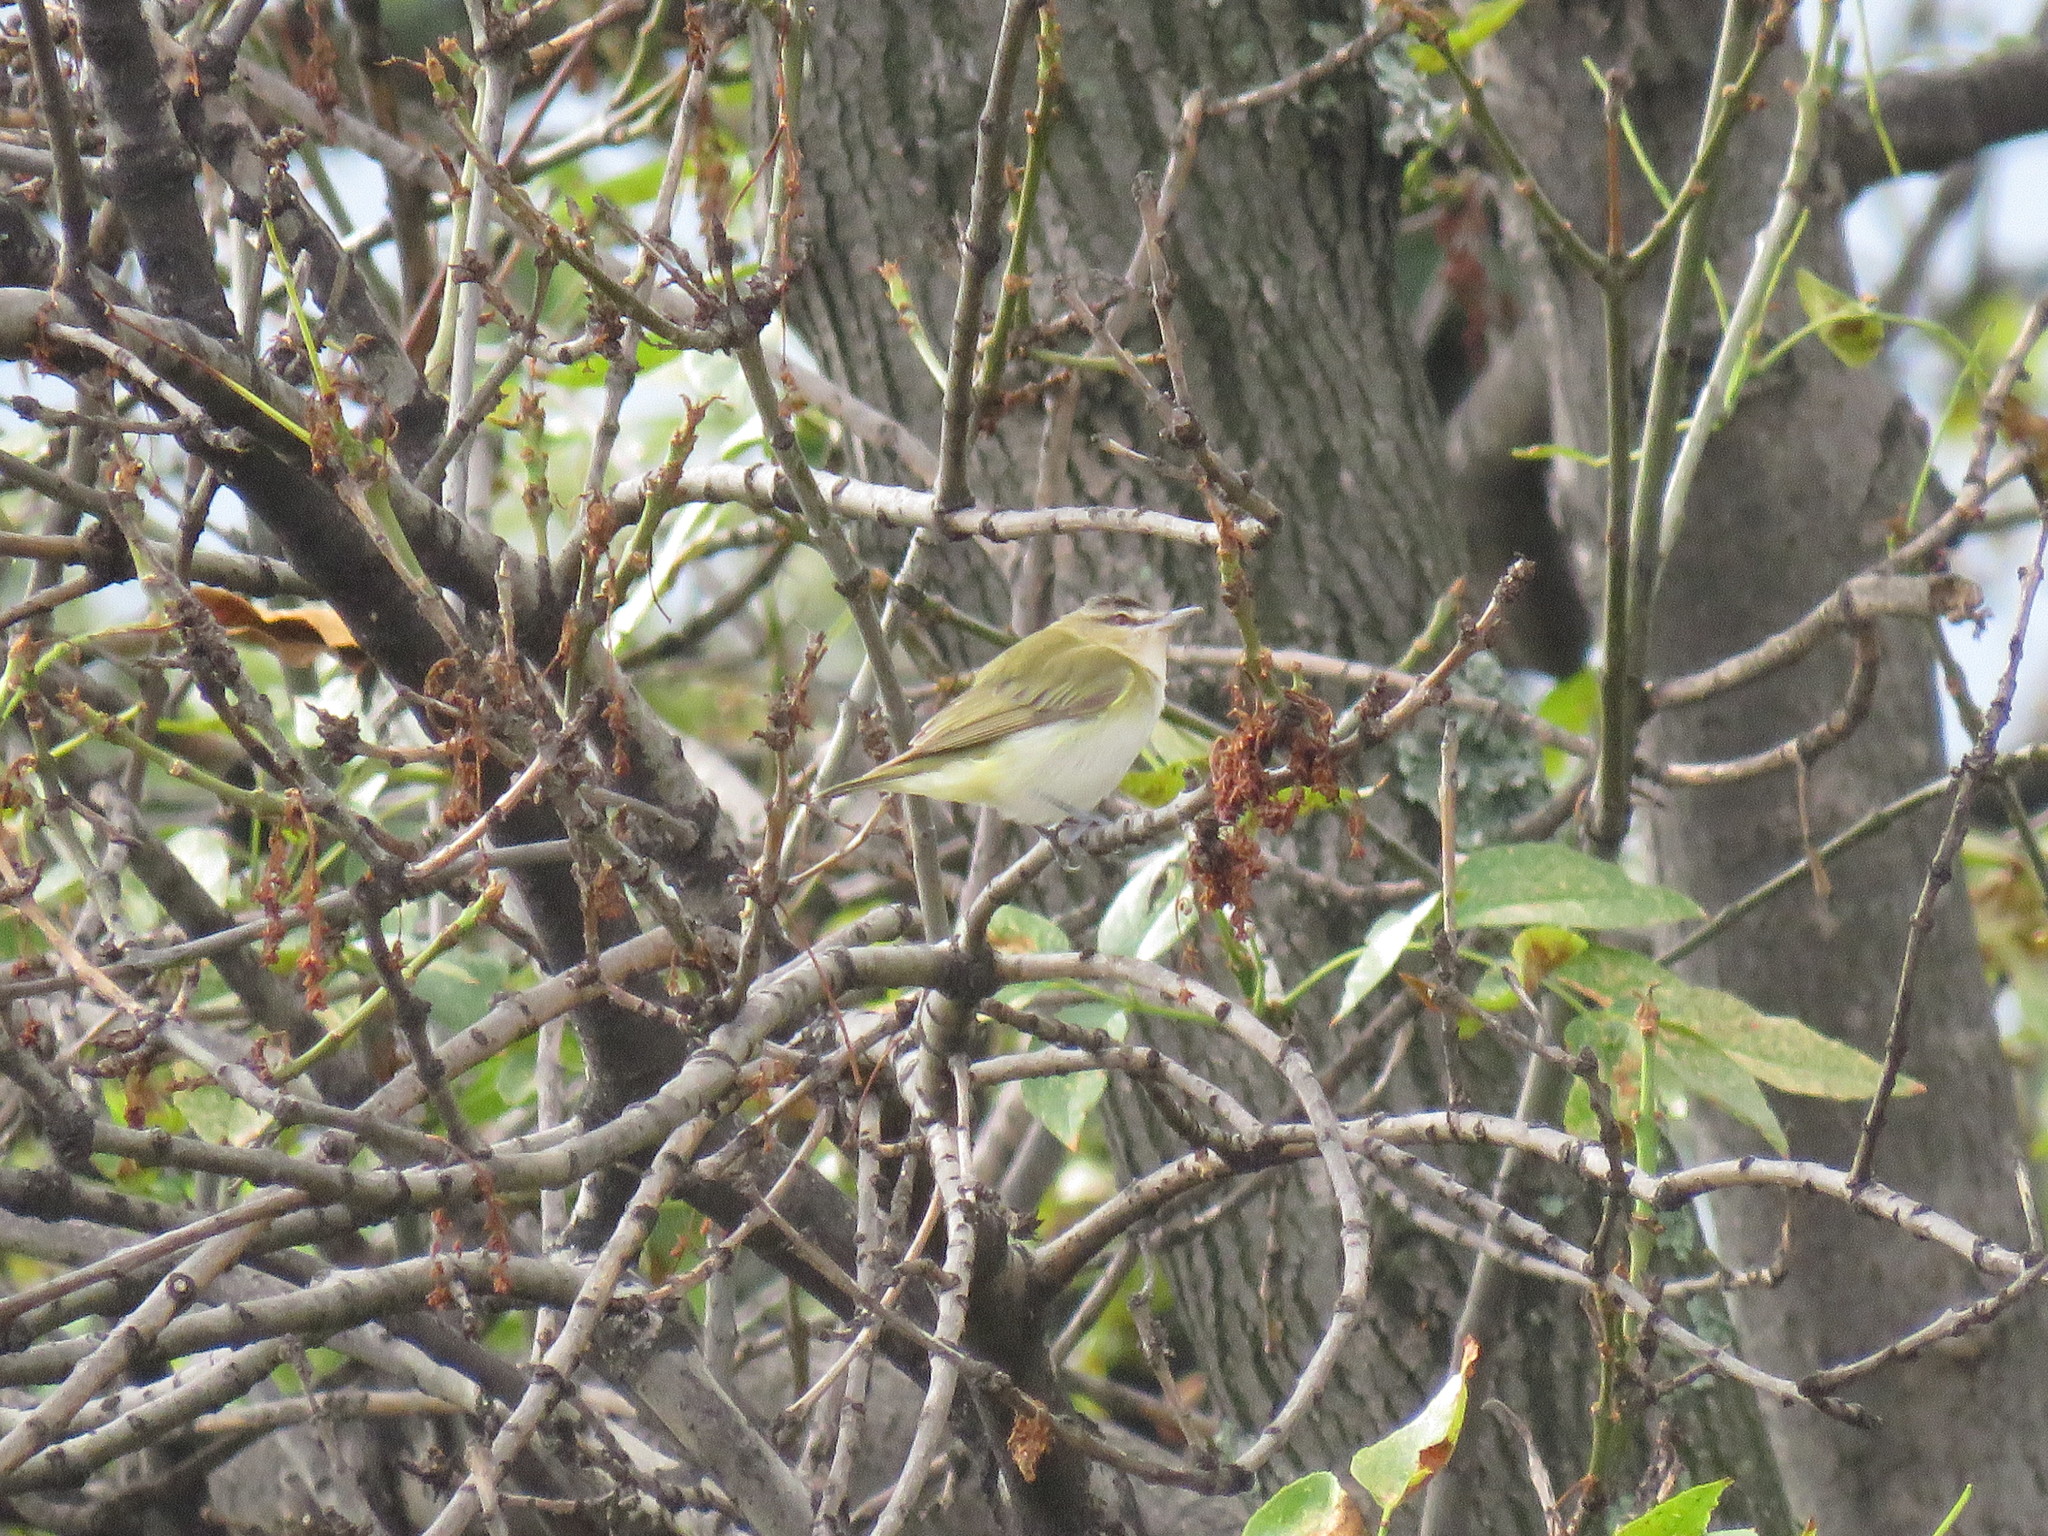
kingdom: Animalia
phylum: Chordata
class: Aves
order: Passeriformes
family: Vireonidae
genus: Vireo
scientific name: Vireo olivaceus
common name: Red-eyed vireo
